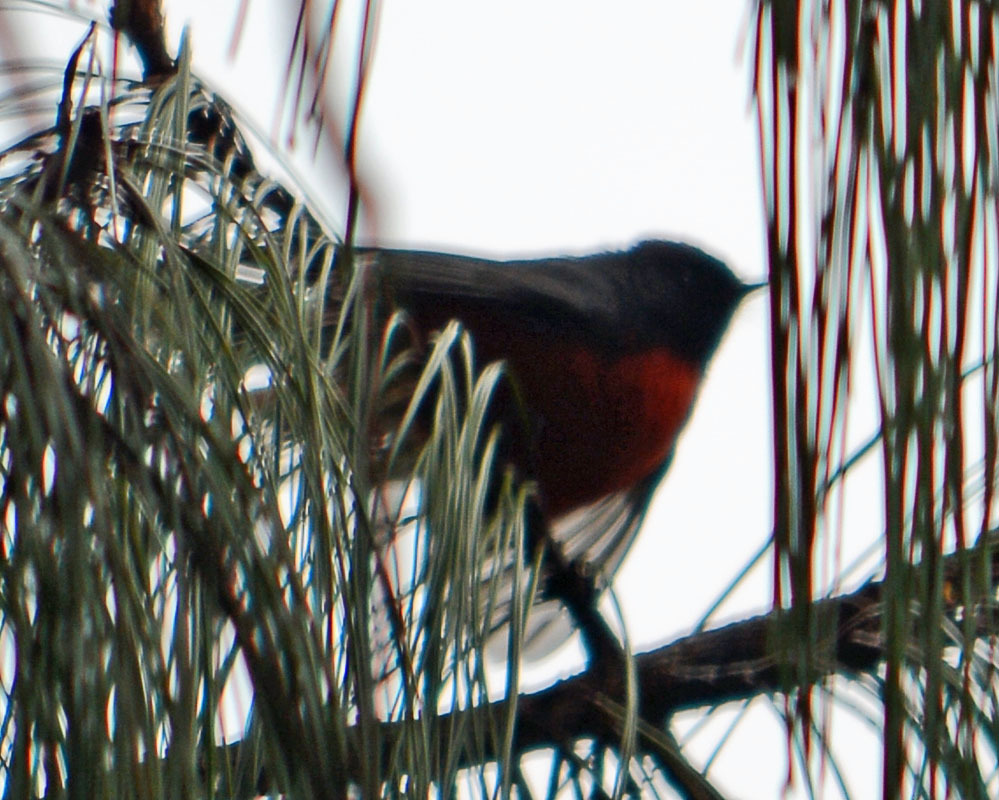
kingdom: Animalia
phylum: Chordata
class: Aves
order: Passeriformes
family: Parulidae
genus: Myioborus
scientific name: Myioborus miniatus
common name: Slate-throated redstart
